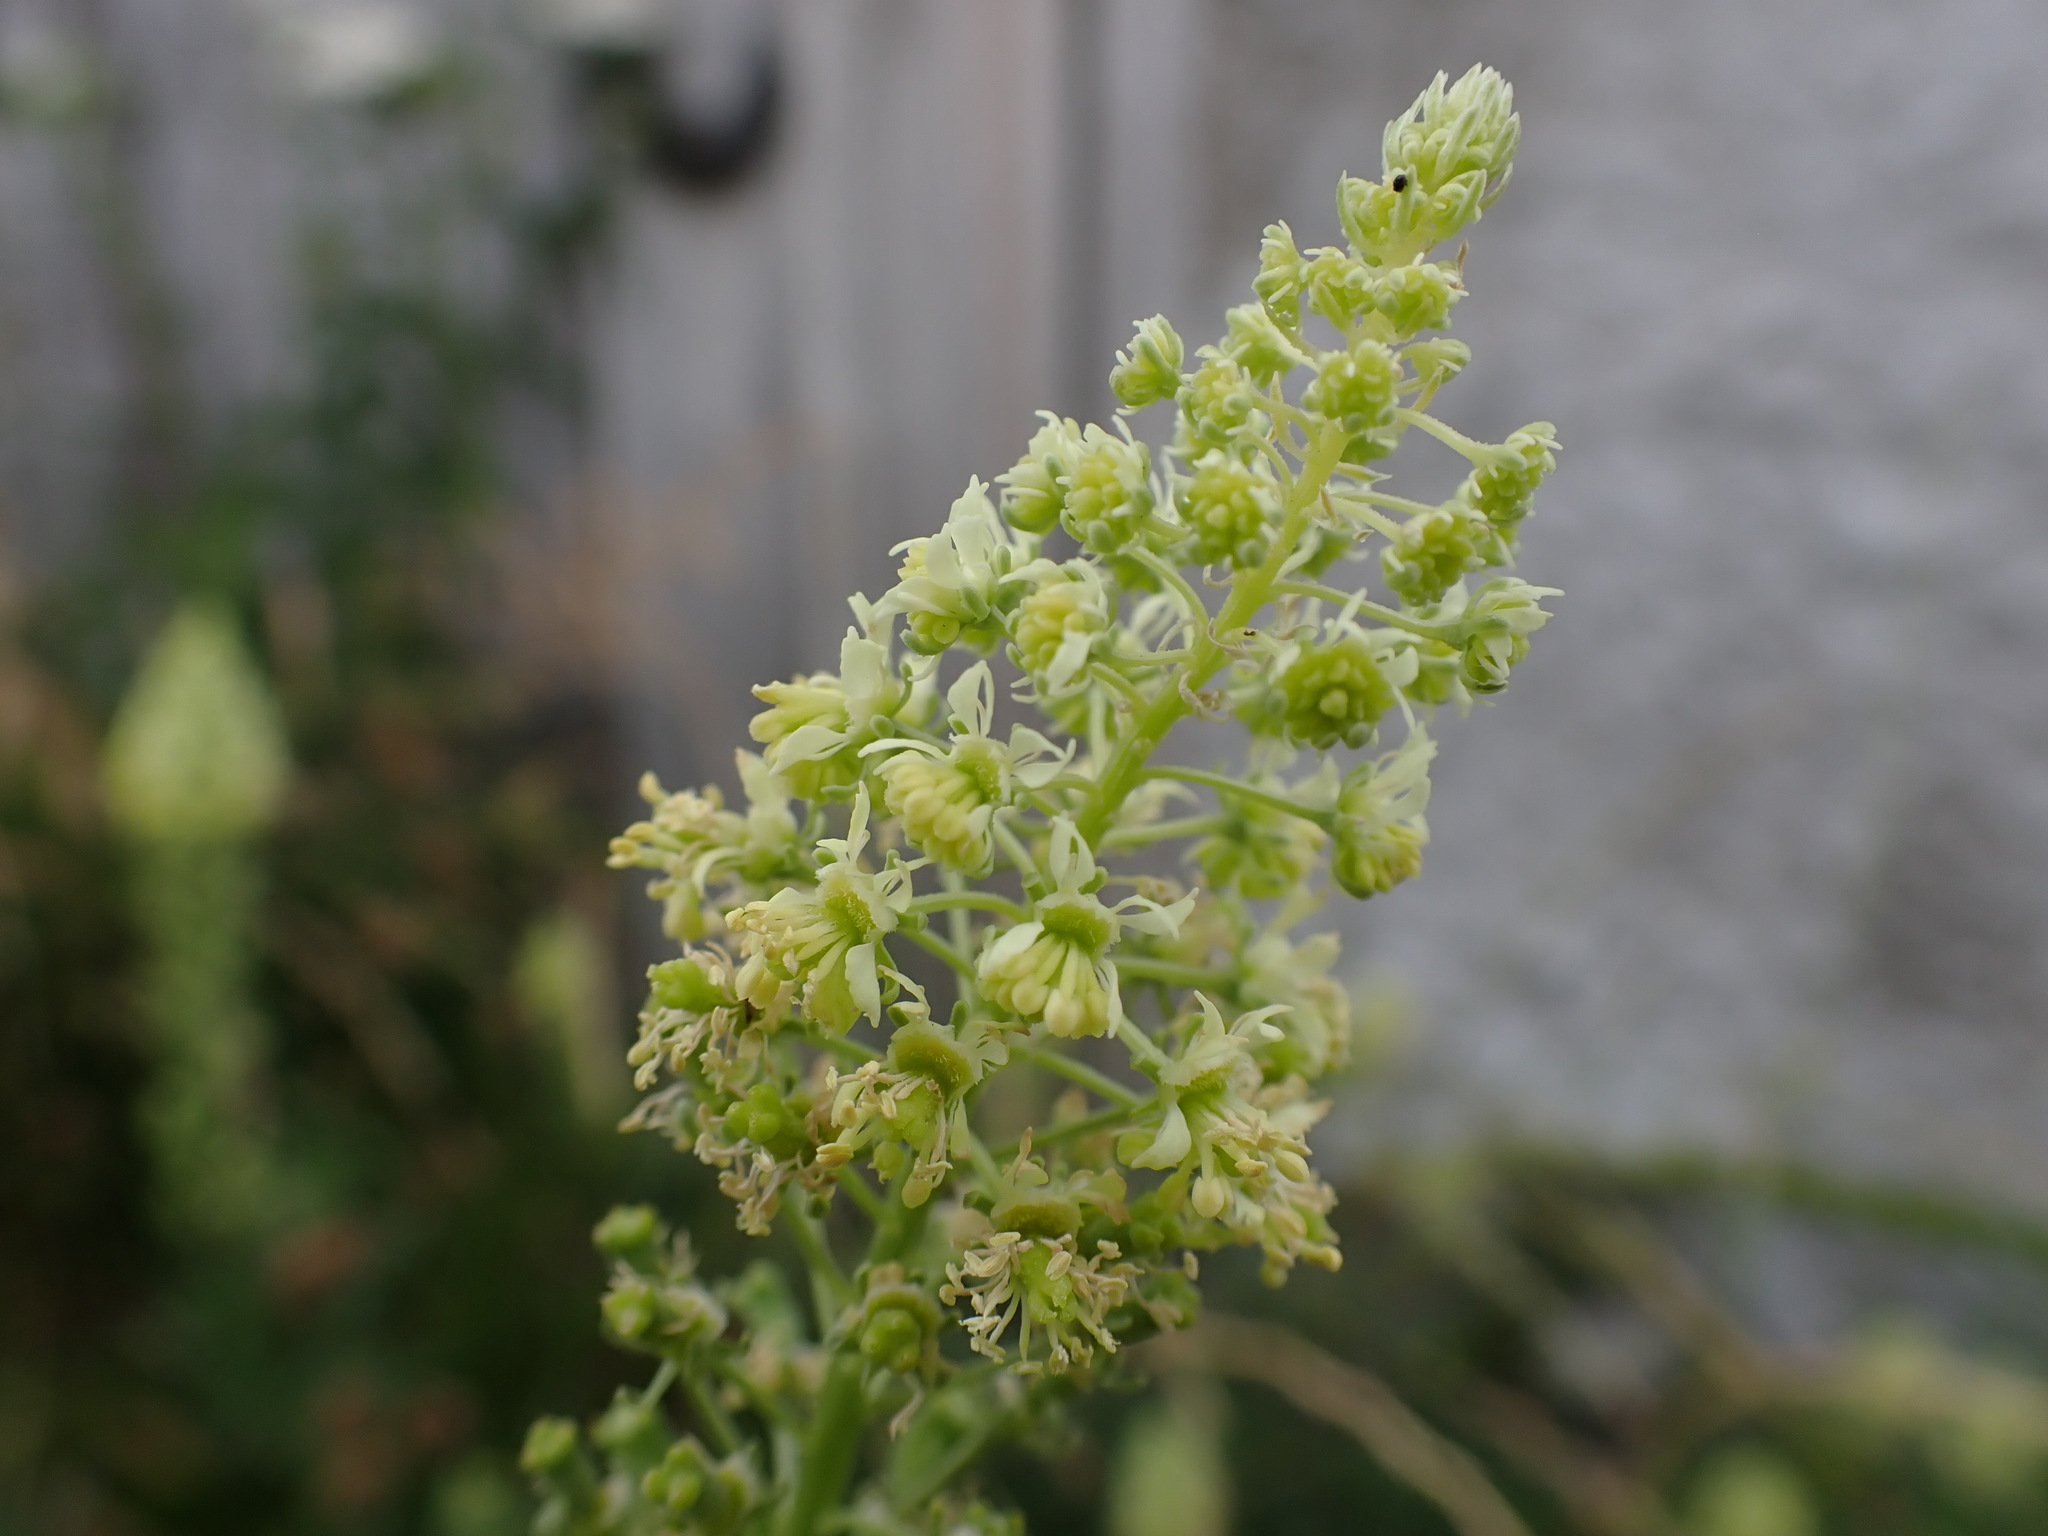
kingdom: Plantae
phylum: Tracheophyta
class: Magnoliopsida
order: Brassicales
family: Resedaceae
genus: Reseda
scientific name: Reseda lutea
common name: Wild mignonette
